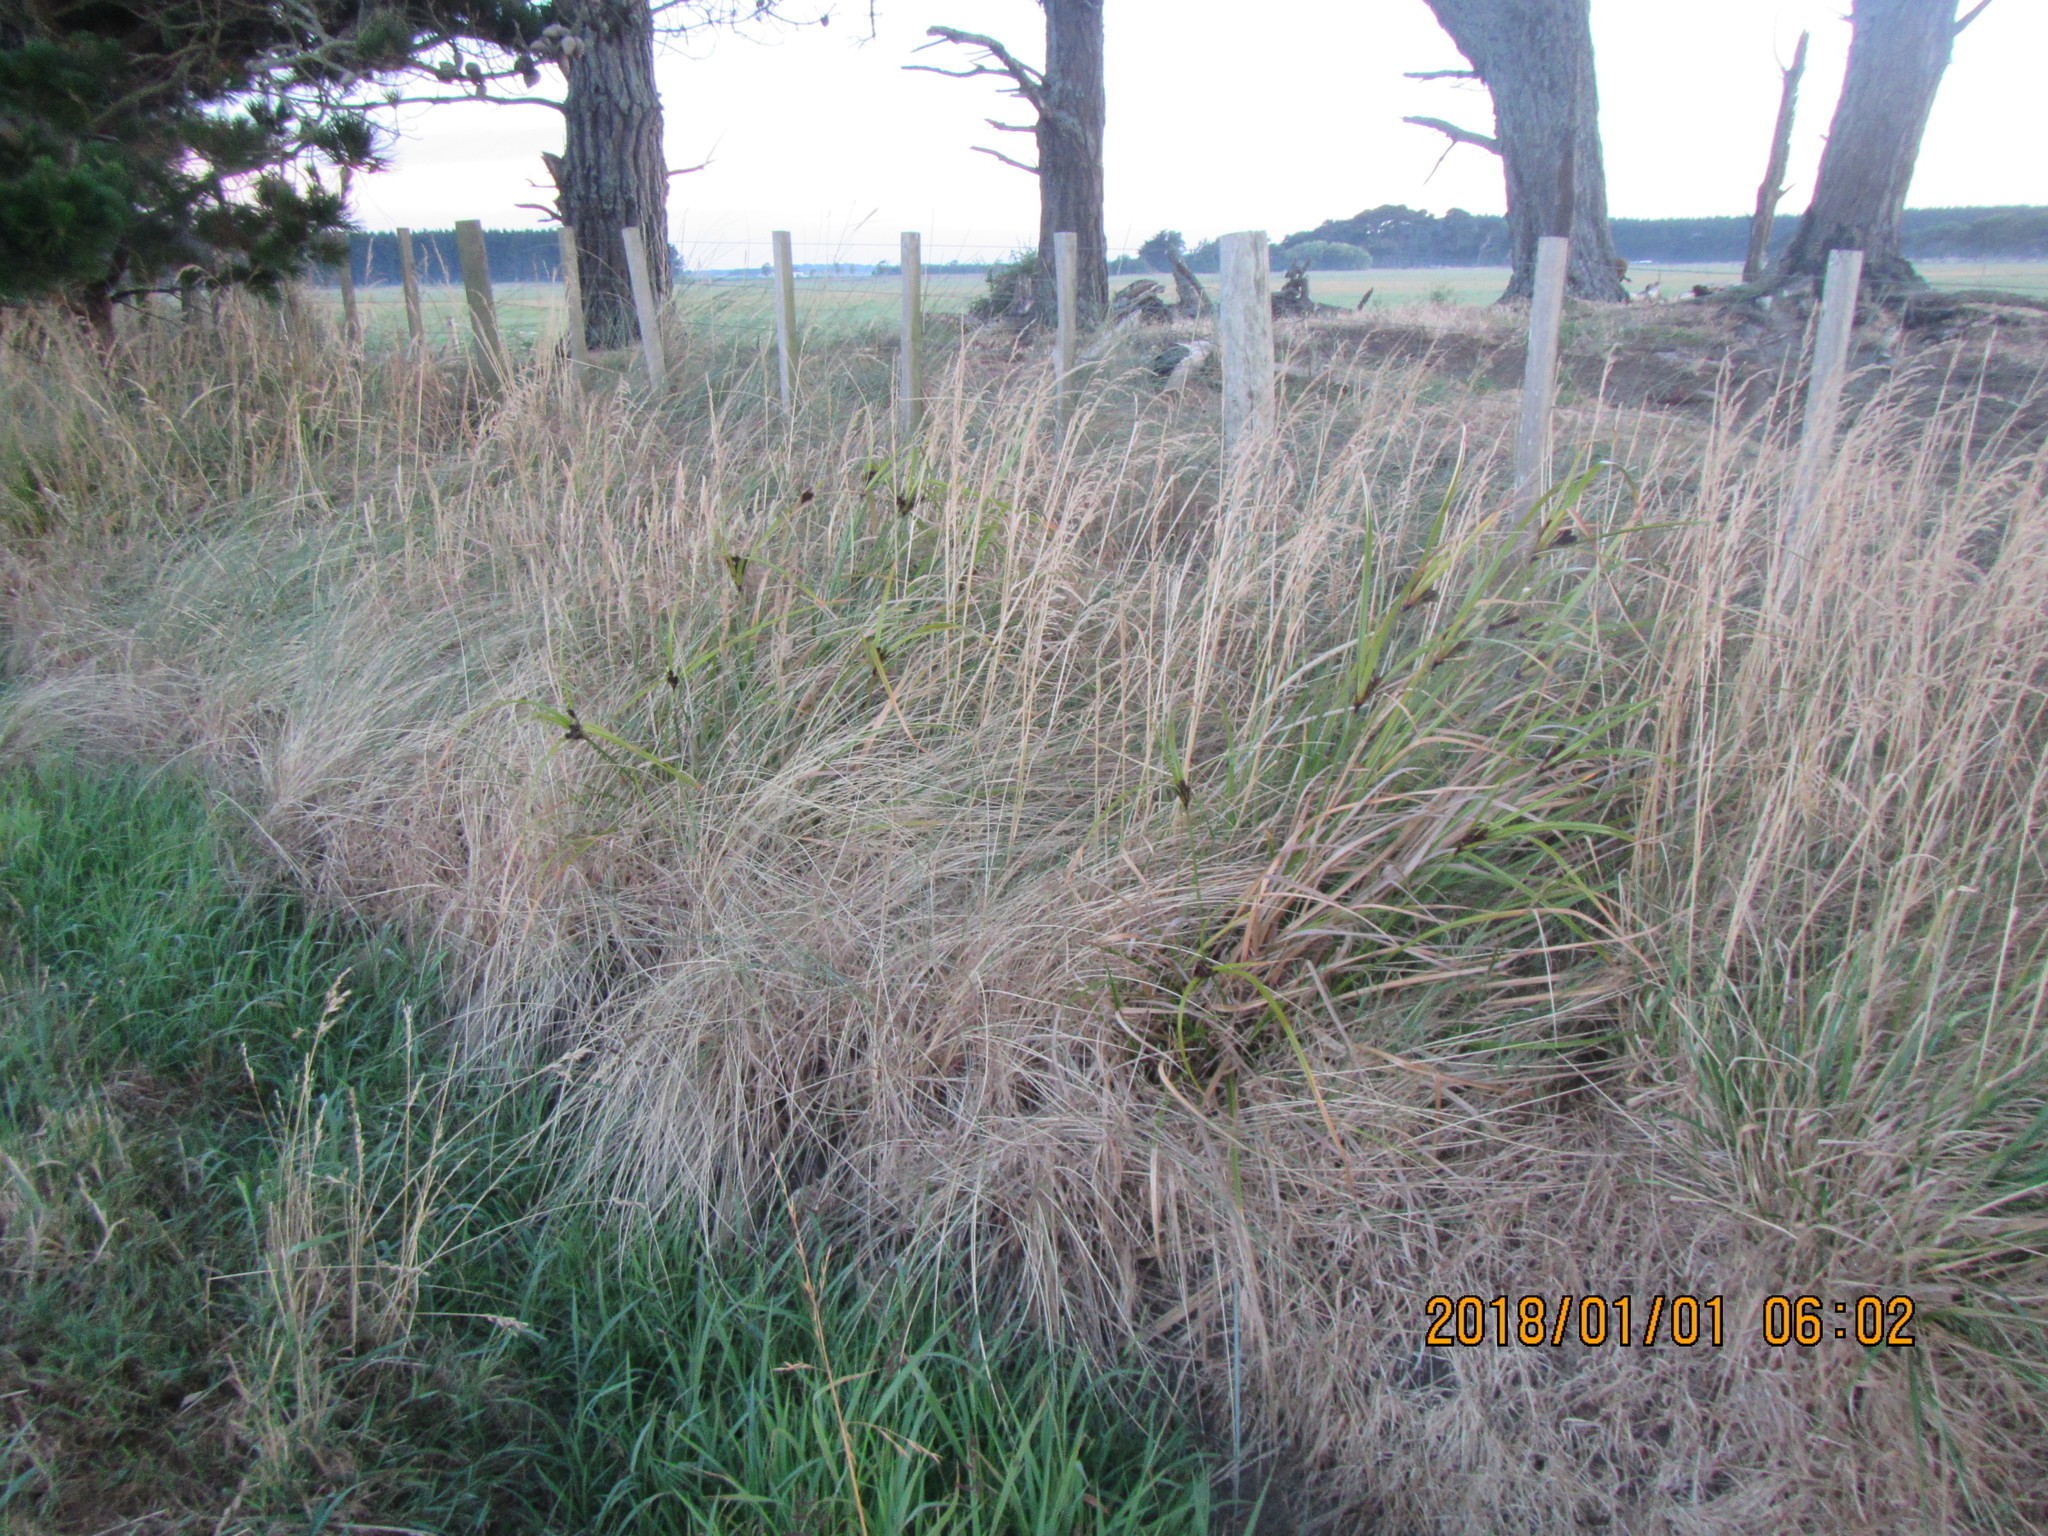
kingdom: Plantae
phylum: Tracheophyta
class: Liliopsida
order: Poales
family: Cyperaceae
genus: Cyperus
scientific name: Cyperus ustulatus
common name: Giant umbrella-sedge
